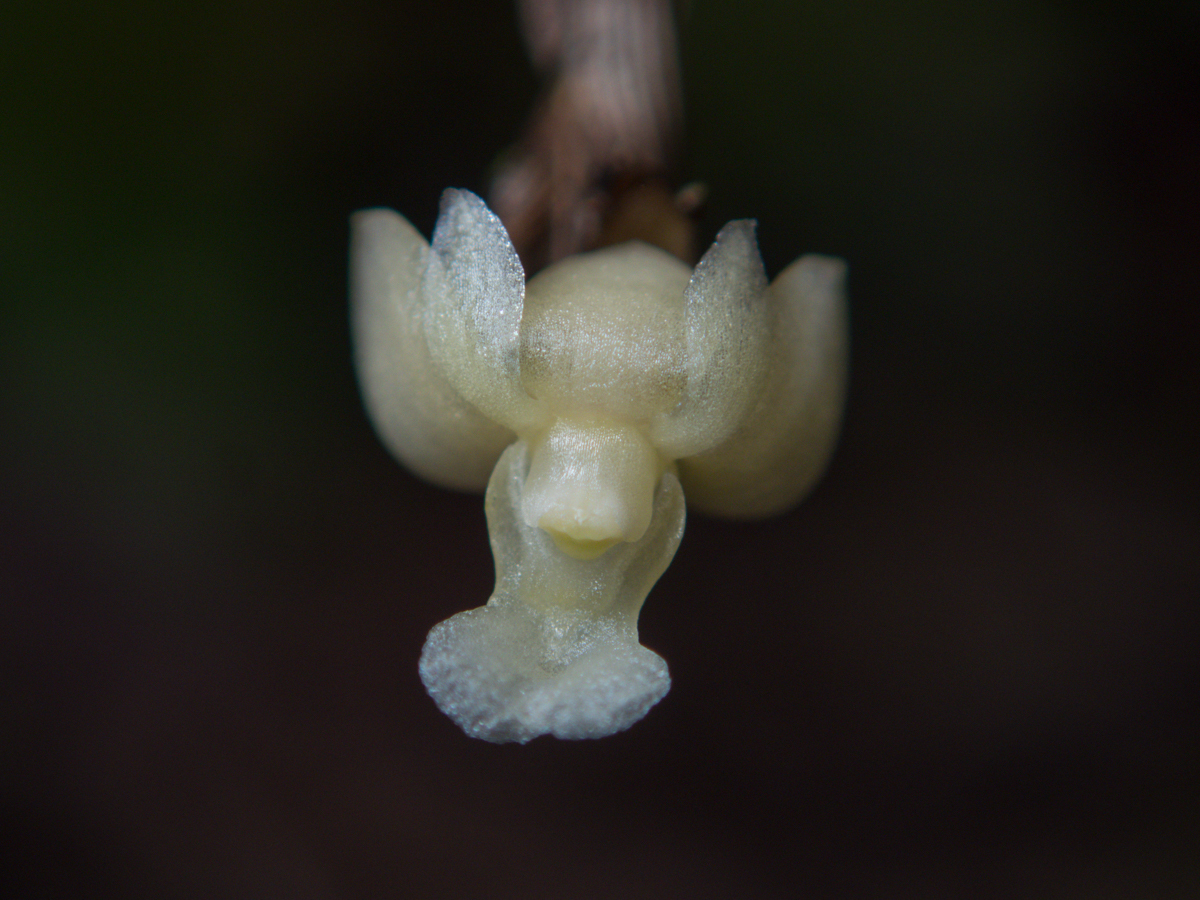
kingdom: Plantae
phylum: Tracheophyta
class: Liliopsida
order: Asparagales
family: Orchidaceae
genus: Dendrobium
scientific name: Dendrobium aloifolium
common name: Aloe-like dendrobium
